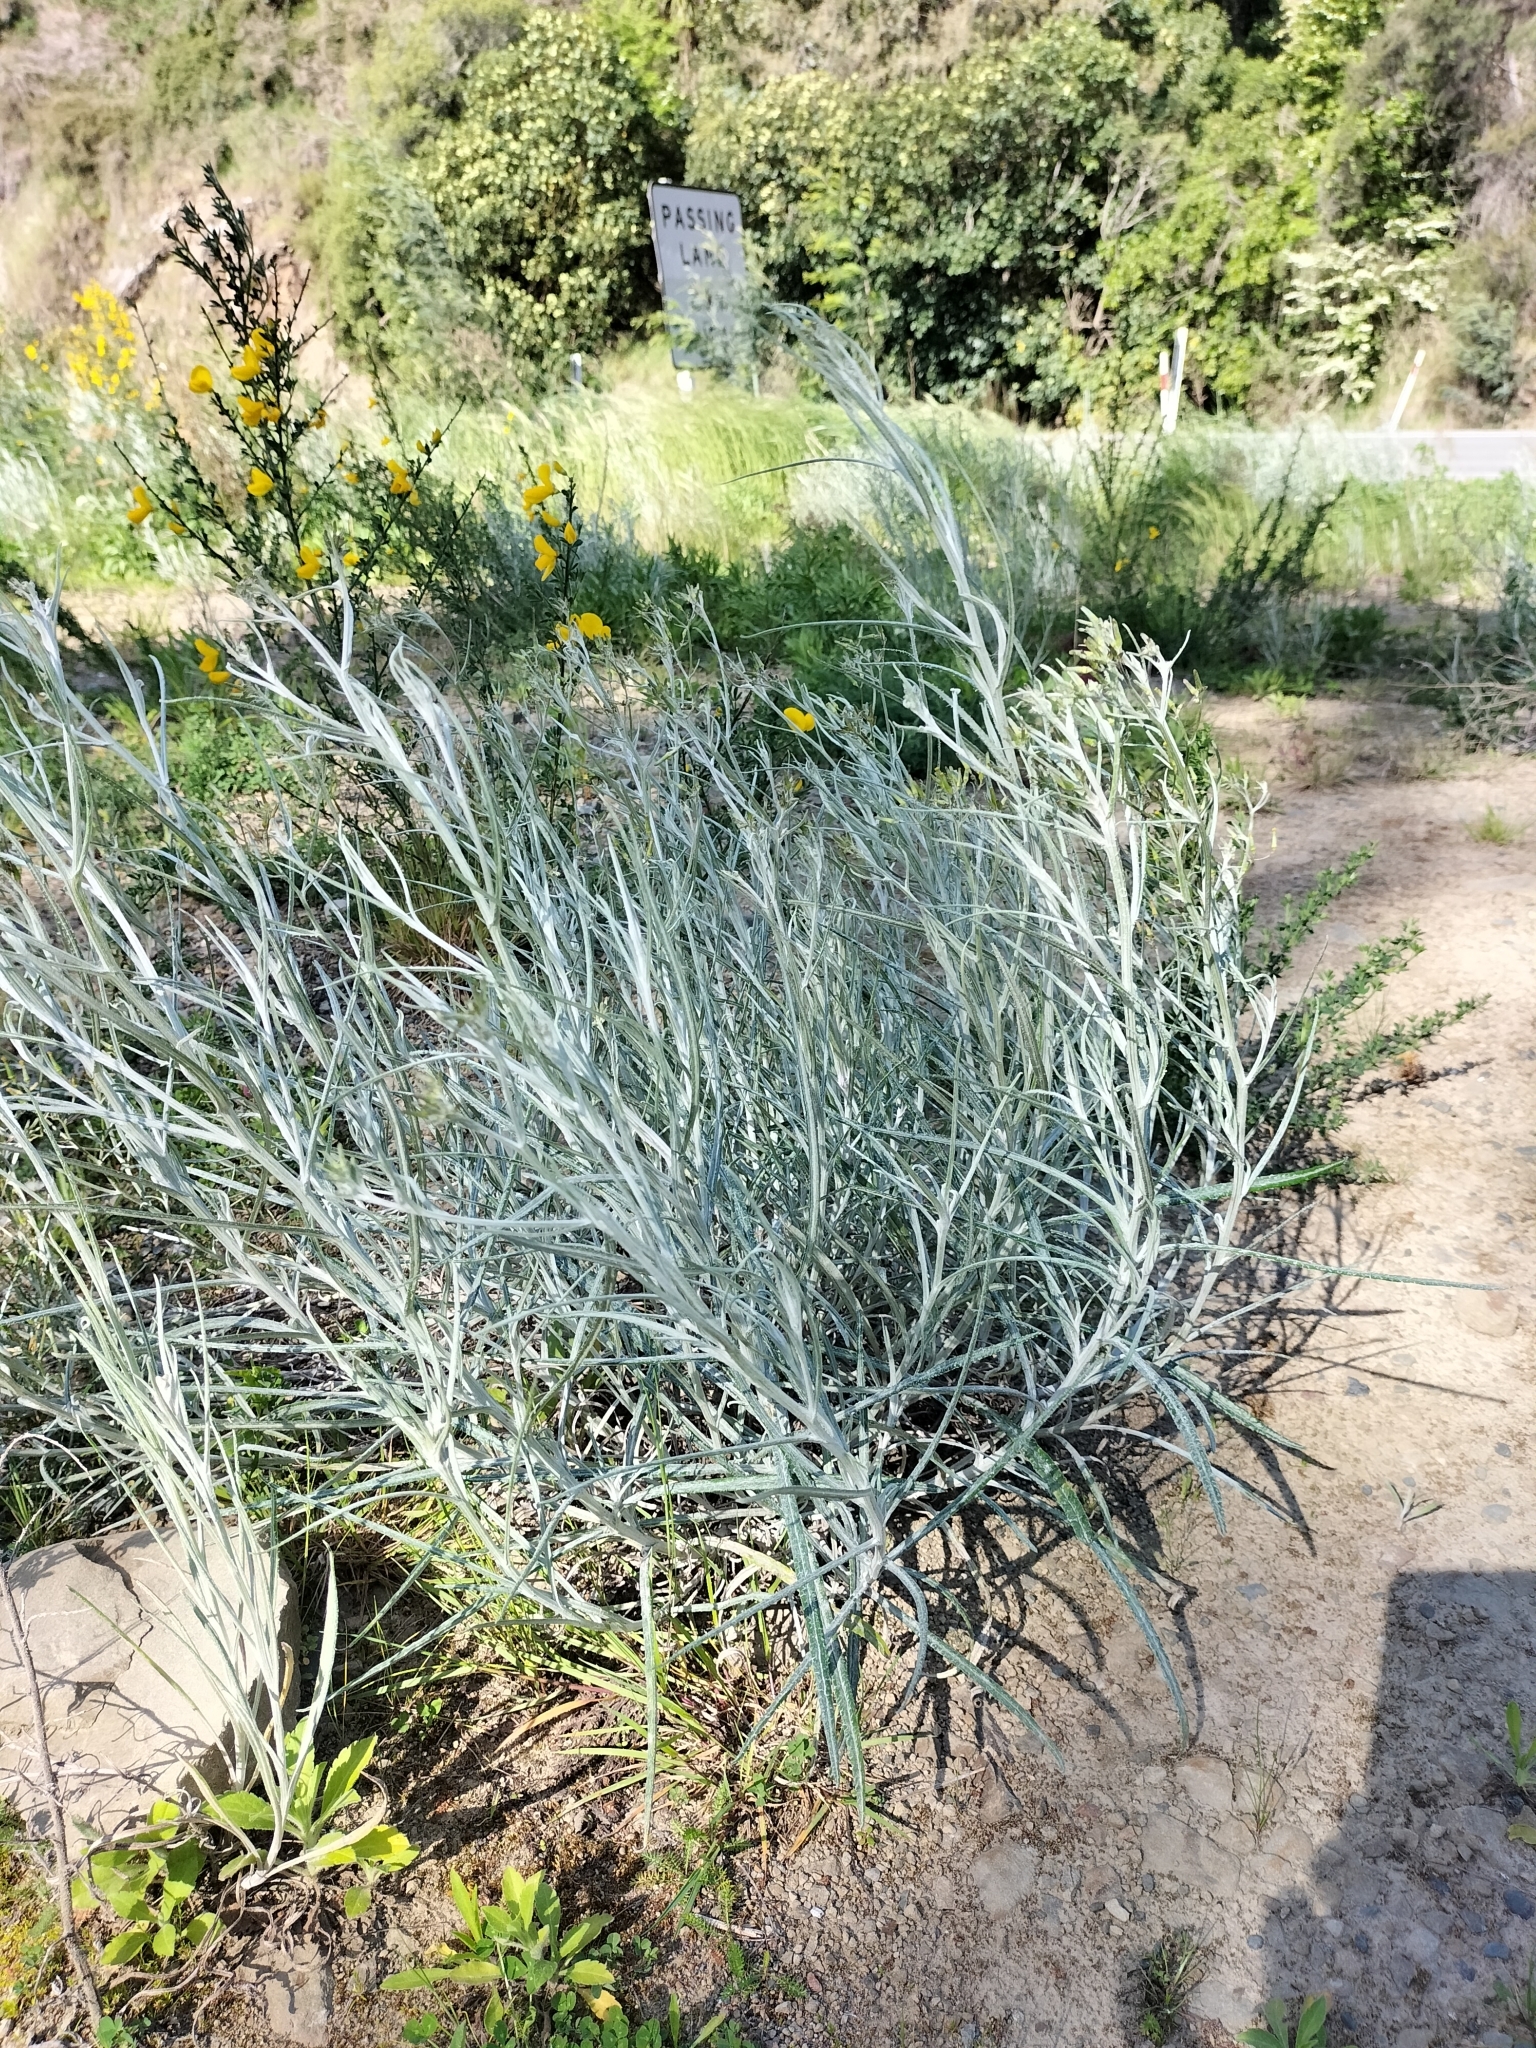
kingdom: Plantae
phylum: Tracheophyta
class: Magnoliopsida
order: Asterales
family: Asteraceae
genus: Senecio
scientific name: Senecio quadridentatus
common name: Cotton fireweed
